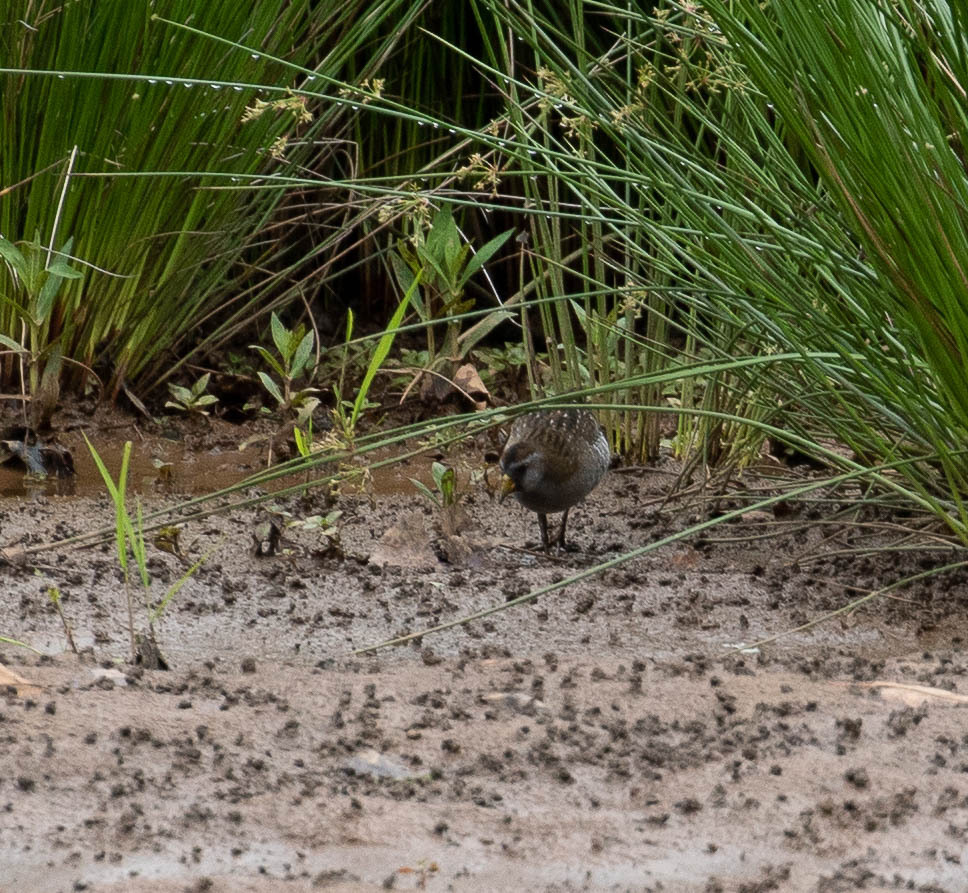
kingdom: Animalia
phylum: Chordata
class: Aves
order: Gruiformes
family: Rallidae
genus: Porzana
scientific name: Porzana carolina
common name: Sora
